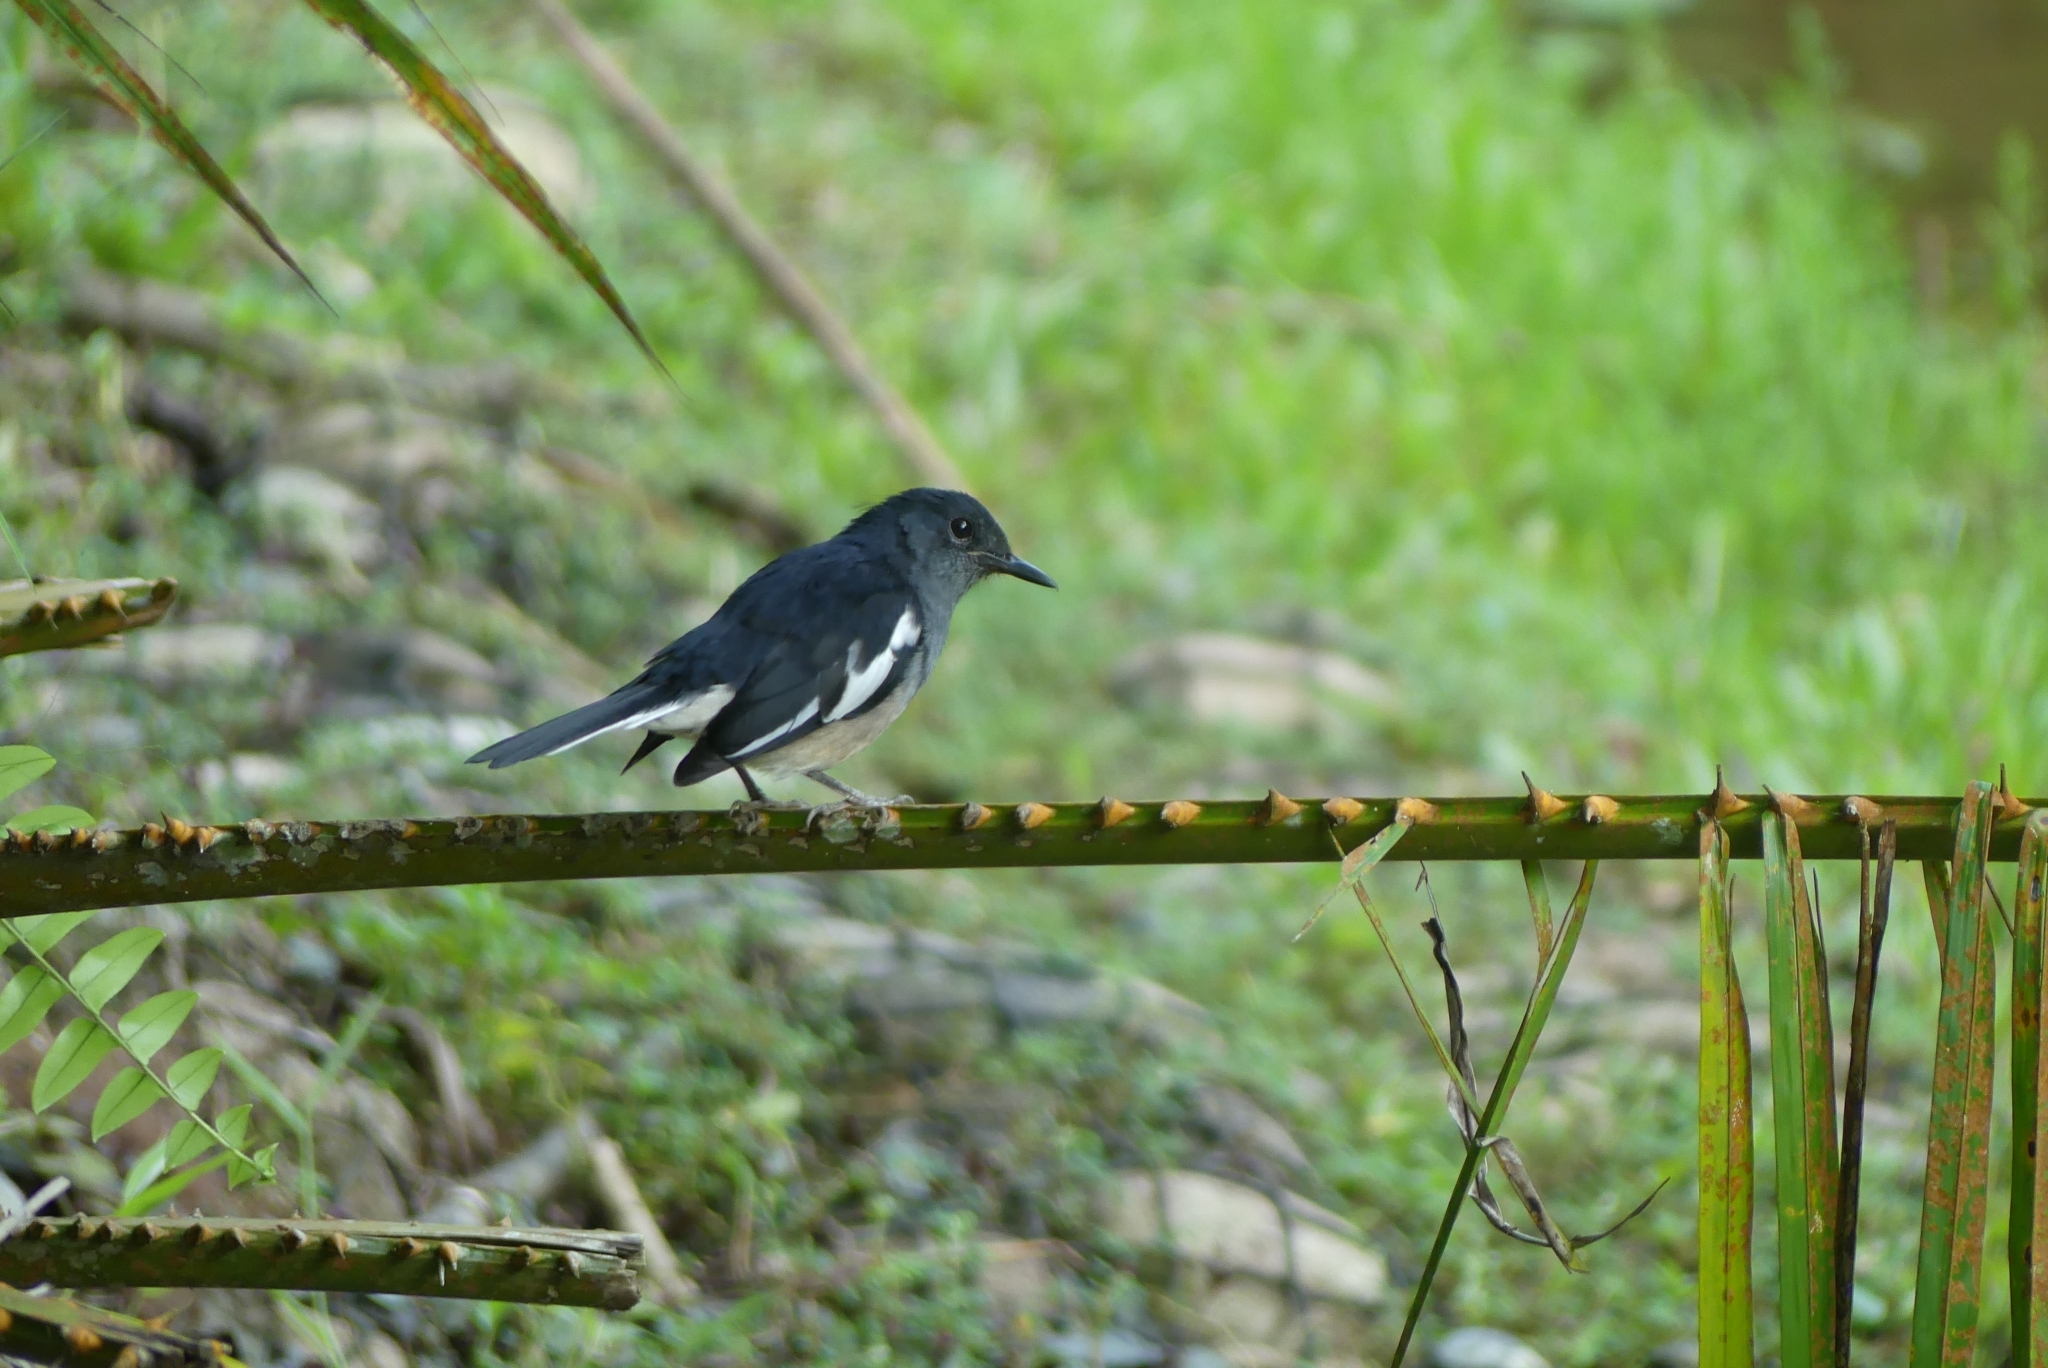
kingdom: Animalia
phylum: Chordata
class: Aves
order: Passeriformes
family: Muscicapidae
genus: Copsychus
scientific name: Copsychus saularis
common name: Oriental magpie-robin
